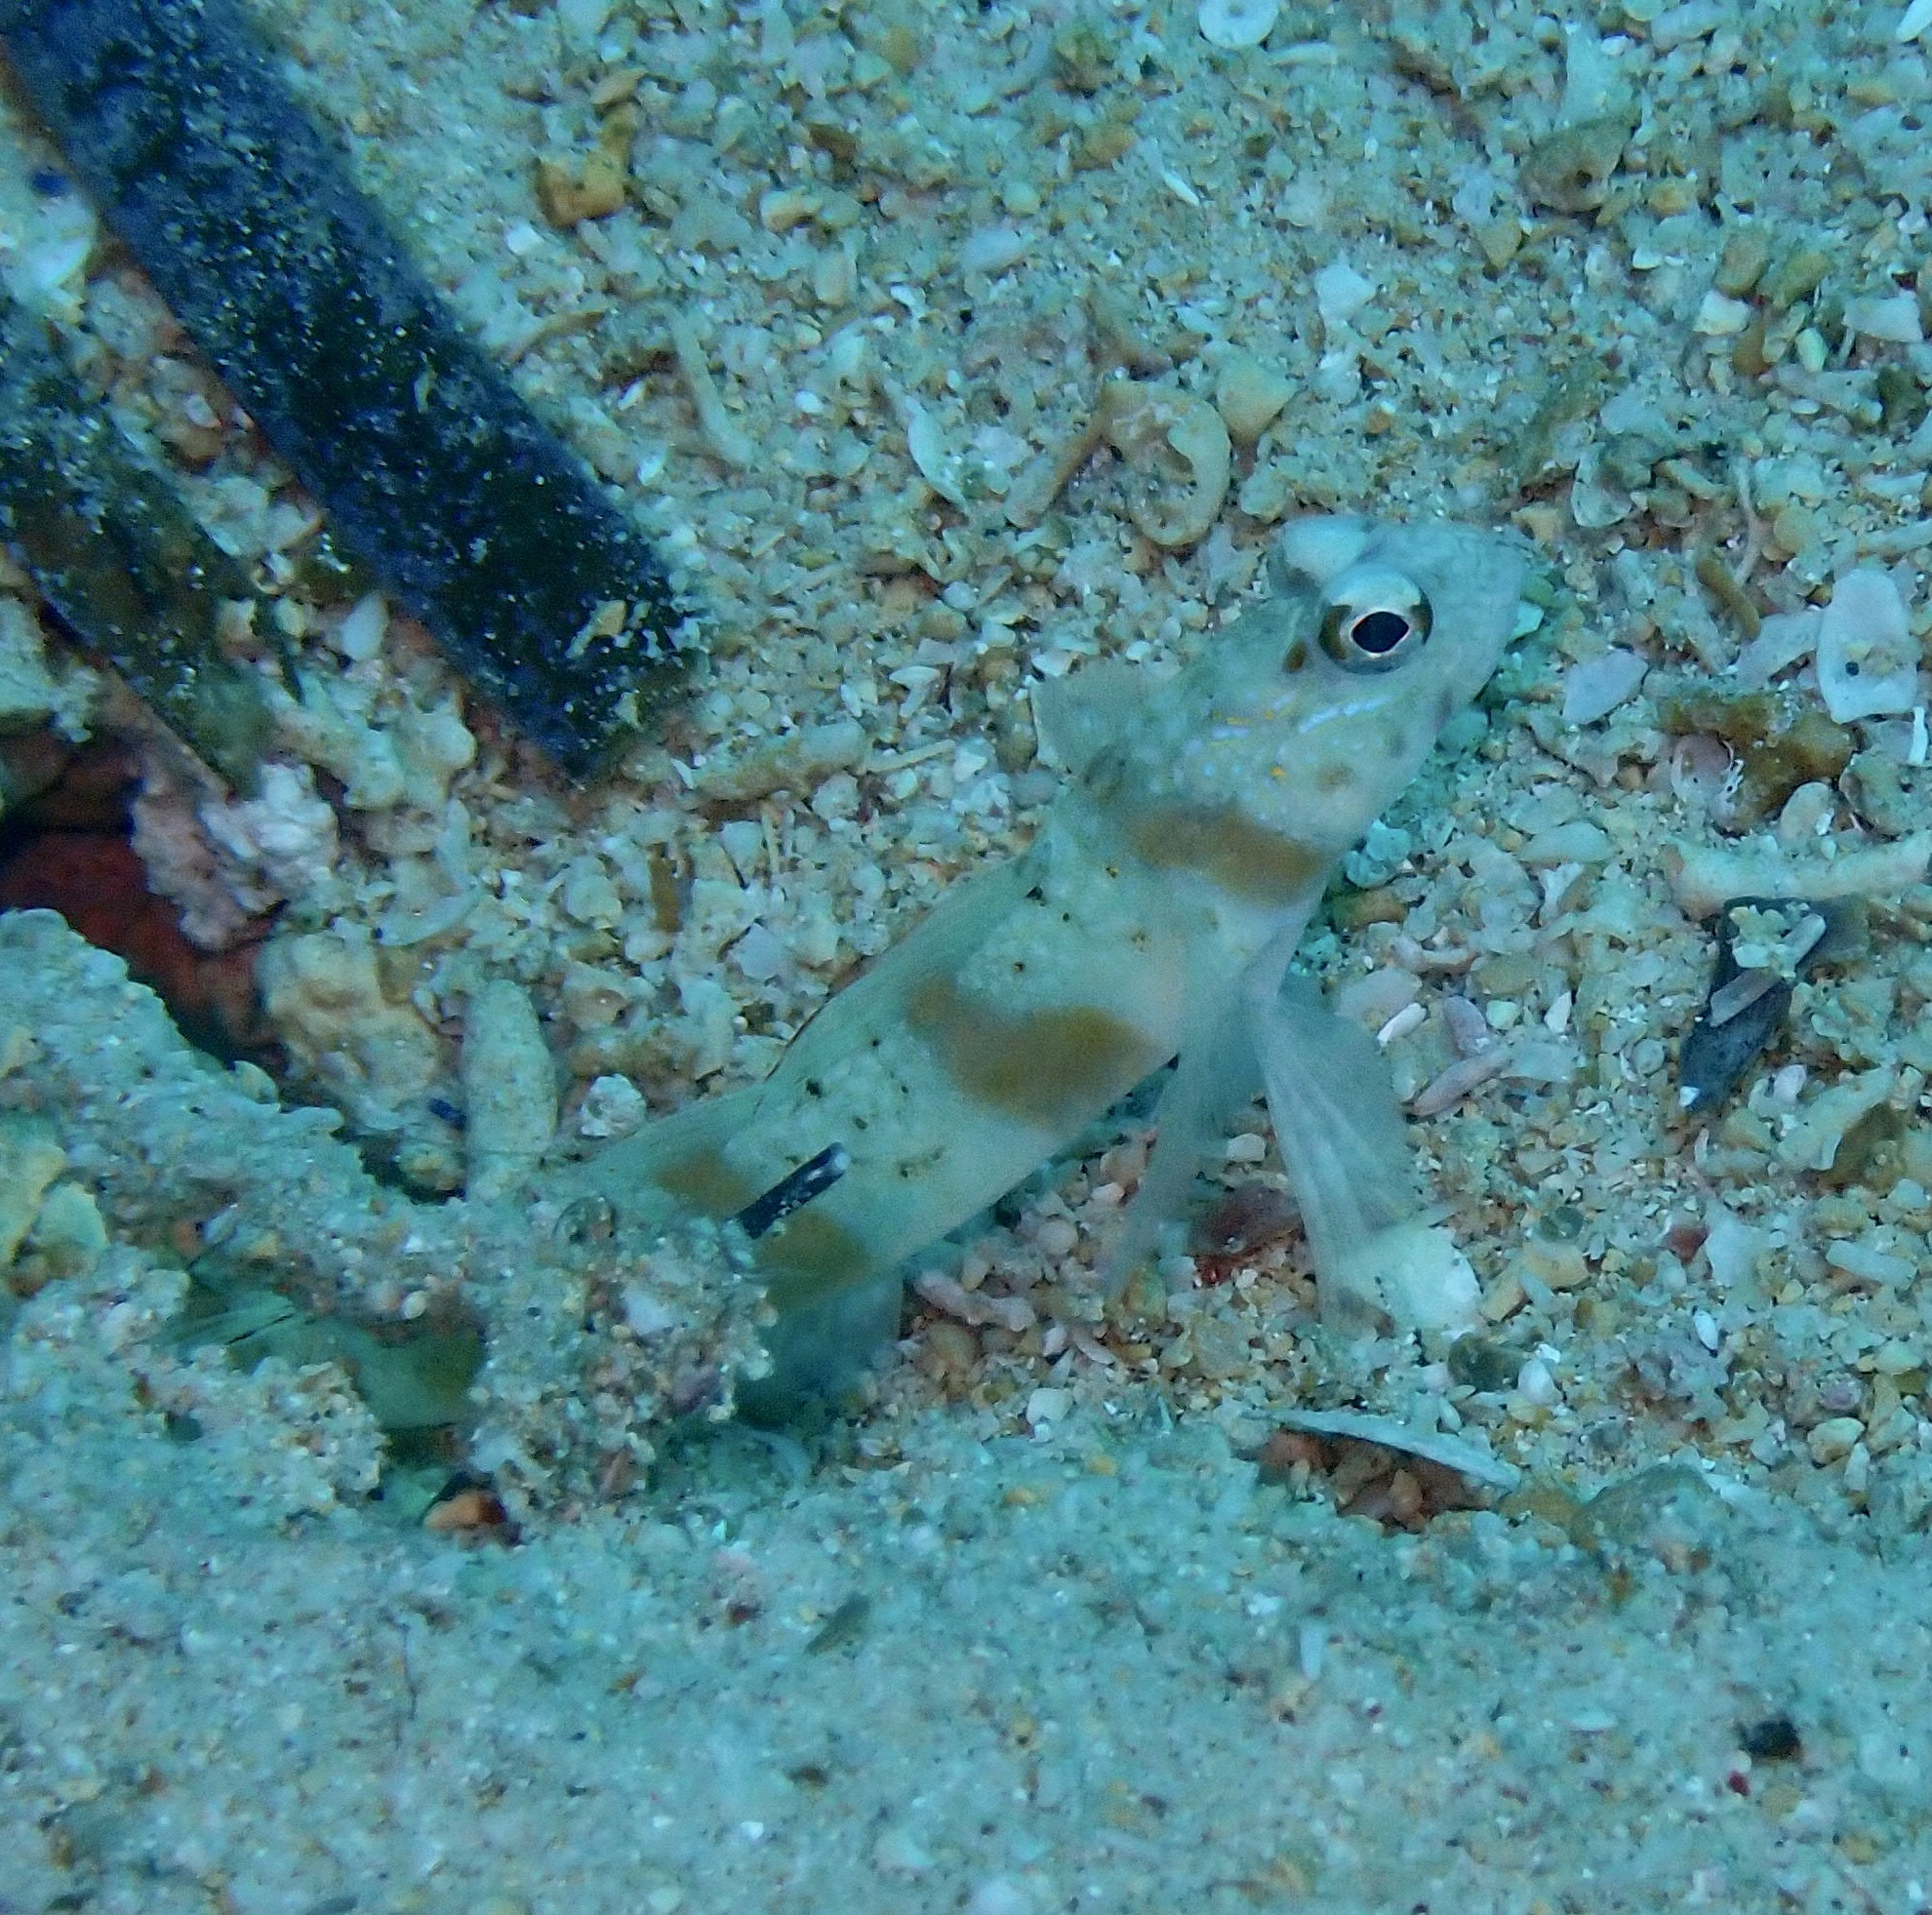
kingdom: Animalia
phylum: Chordata
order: Perciformes
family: Gobiidae
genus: Amblyeleotris
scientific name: Amblyeleotris rubrimarginata
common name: Redmargin shrimpgoby
